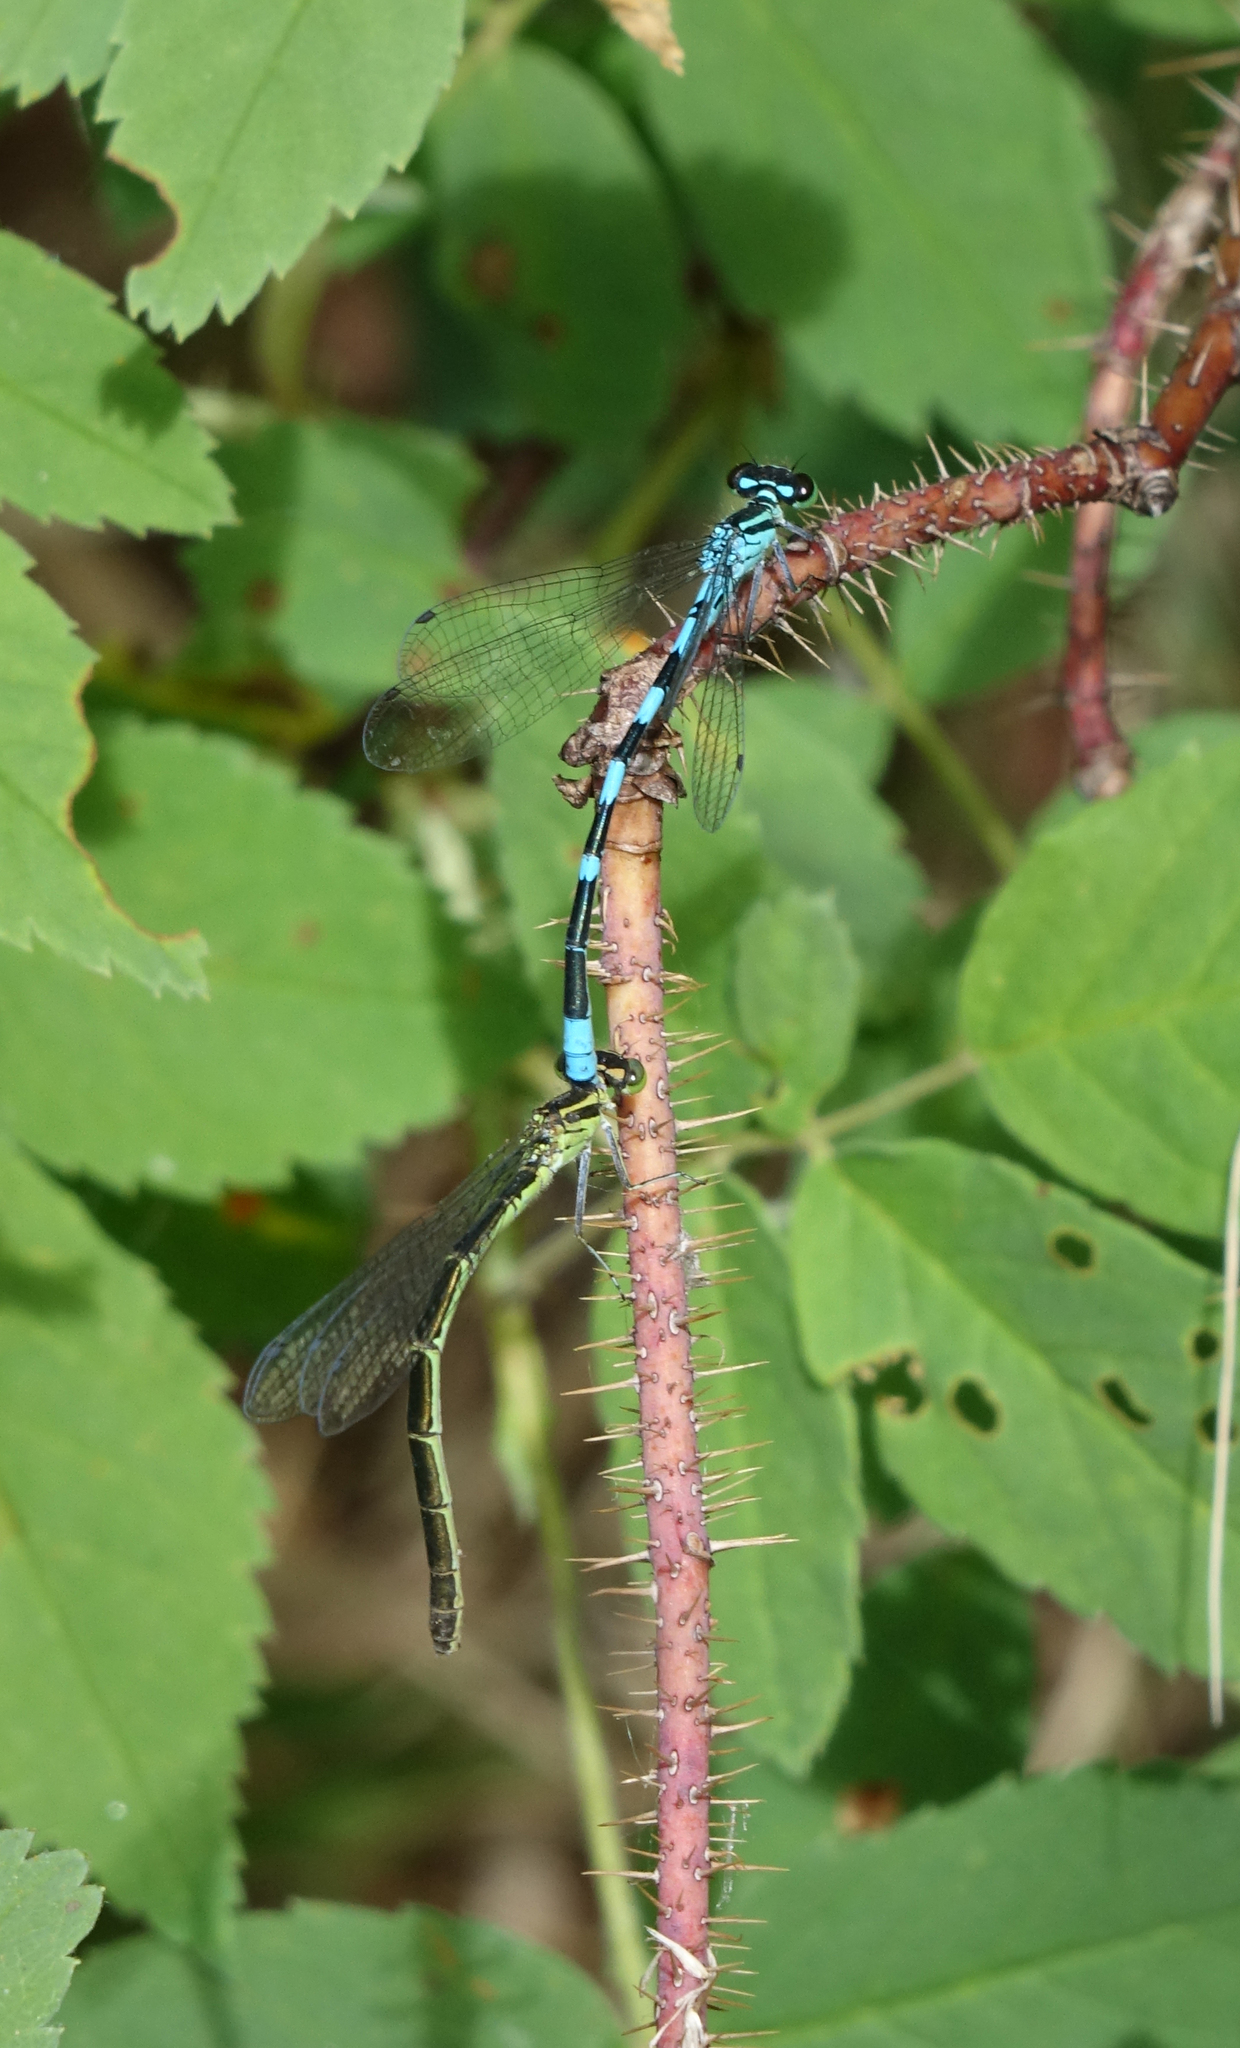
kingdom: Animalia
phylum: Arthropoda
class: Insecta
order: Odonata
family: Coenagrionidae
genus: Coenagrion
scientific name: Coenagrion hastulatum
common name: Spearhead bluet
